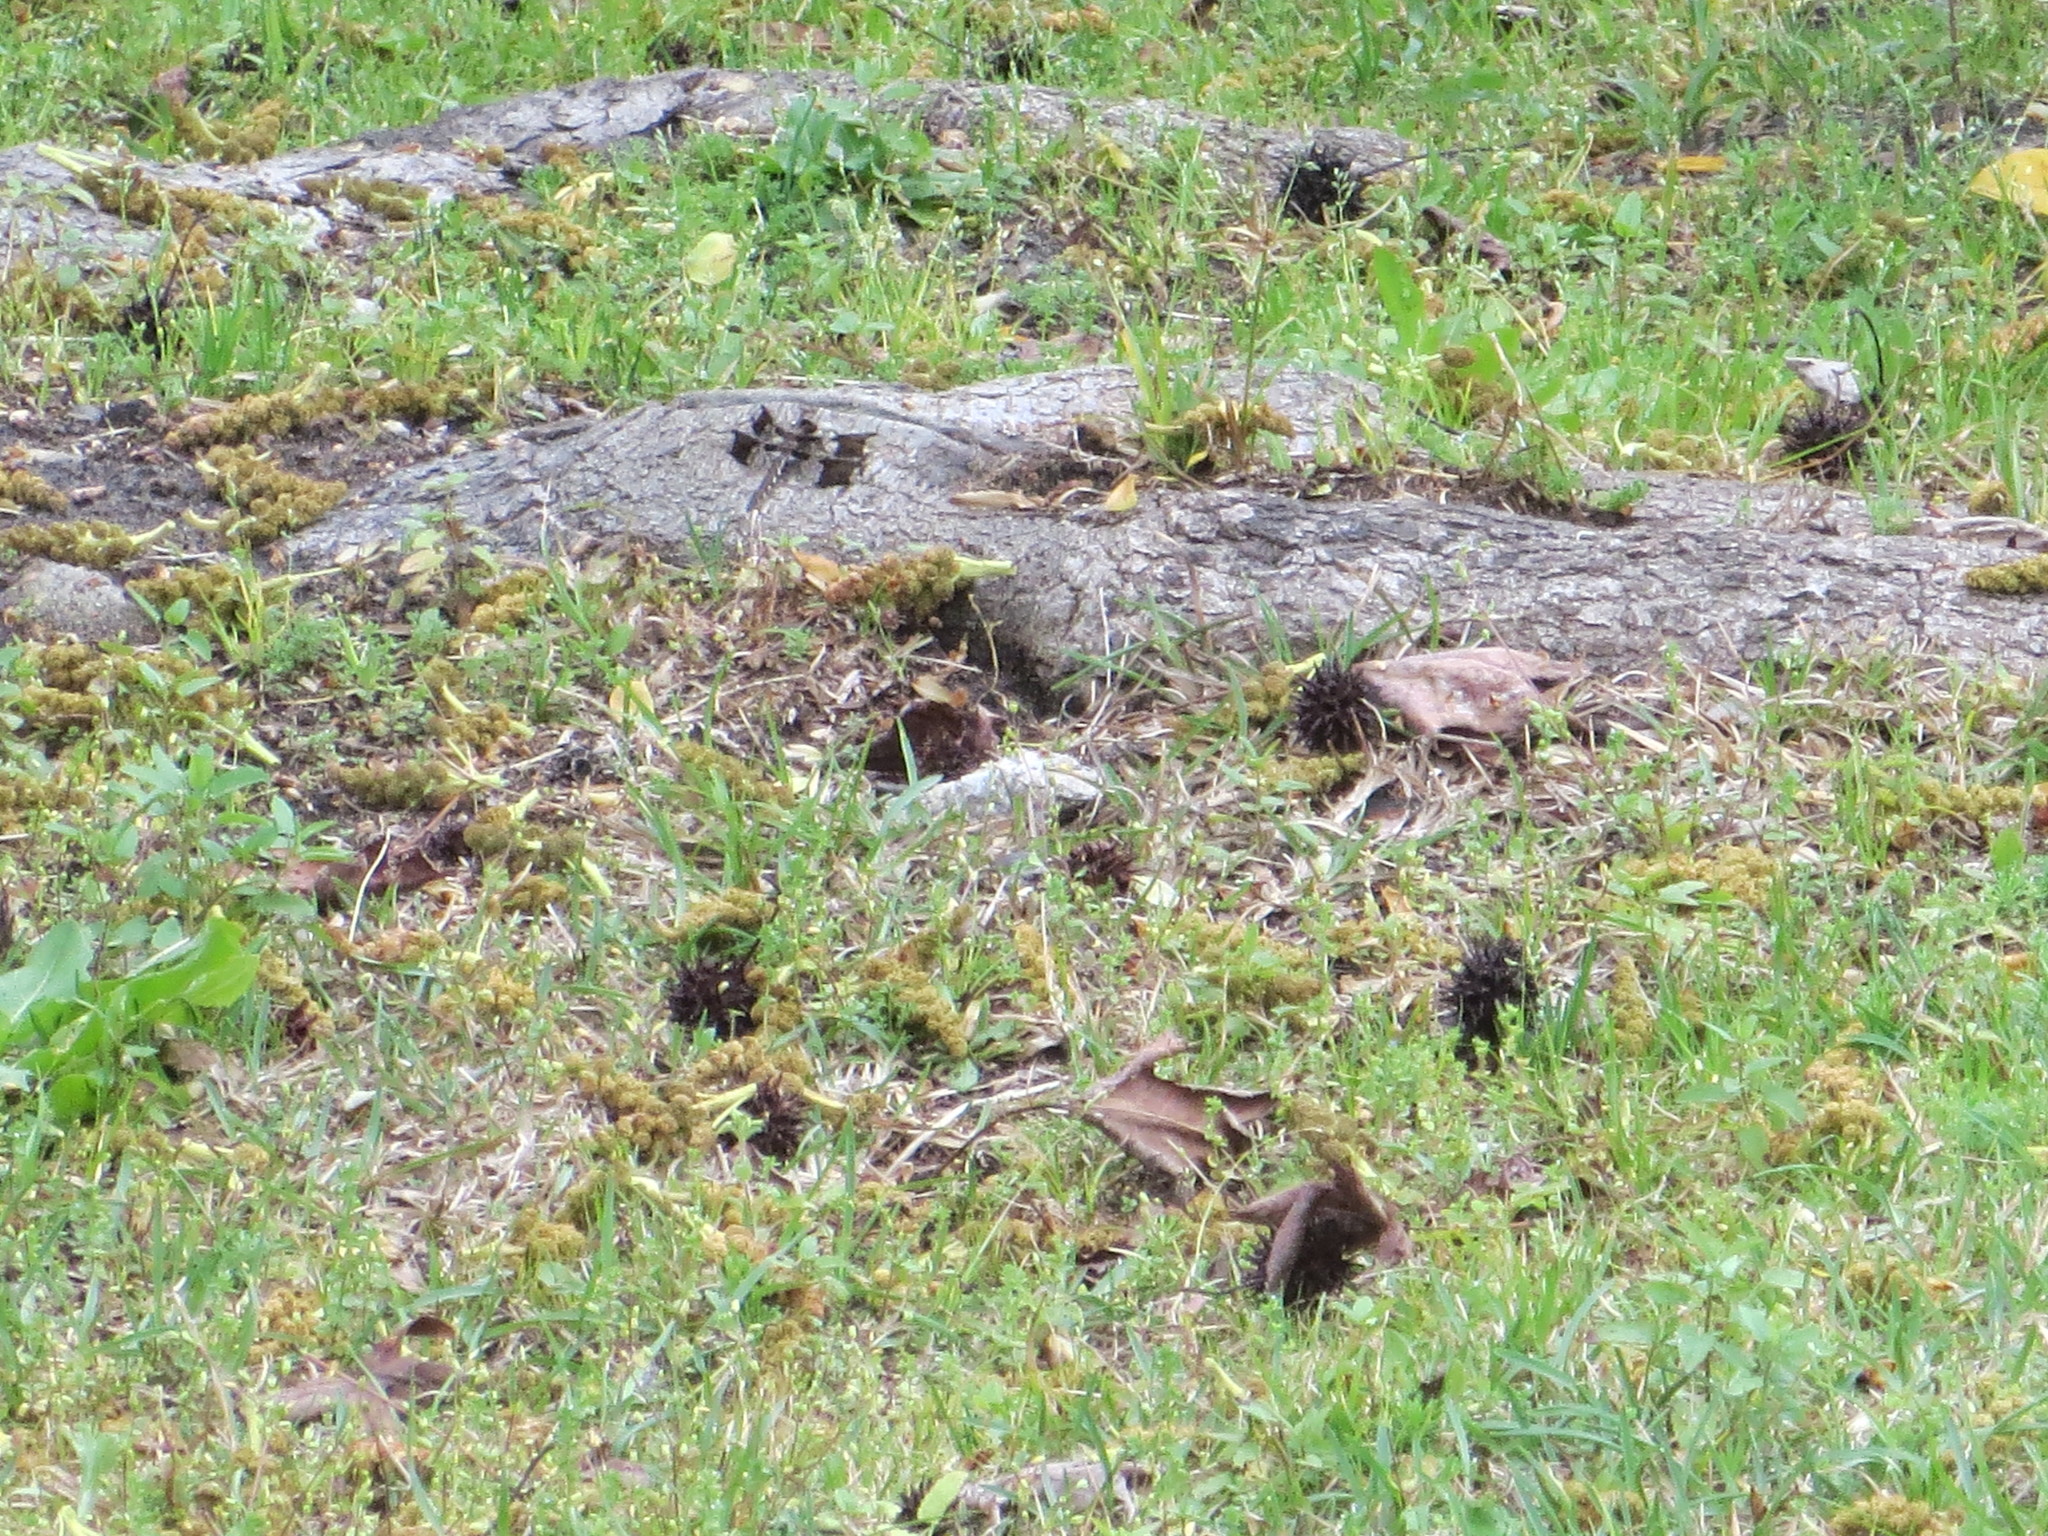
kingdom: Animalia
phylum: Arthropoda
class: Insecta
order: Odonata
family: Libellulidae
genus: Plathemis
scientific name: Plathemis lydia
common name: Common whitetail
